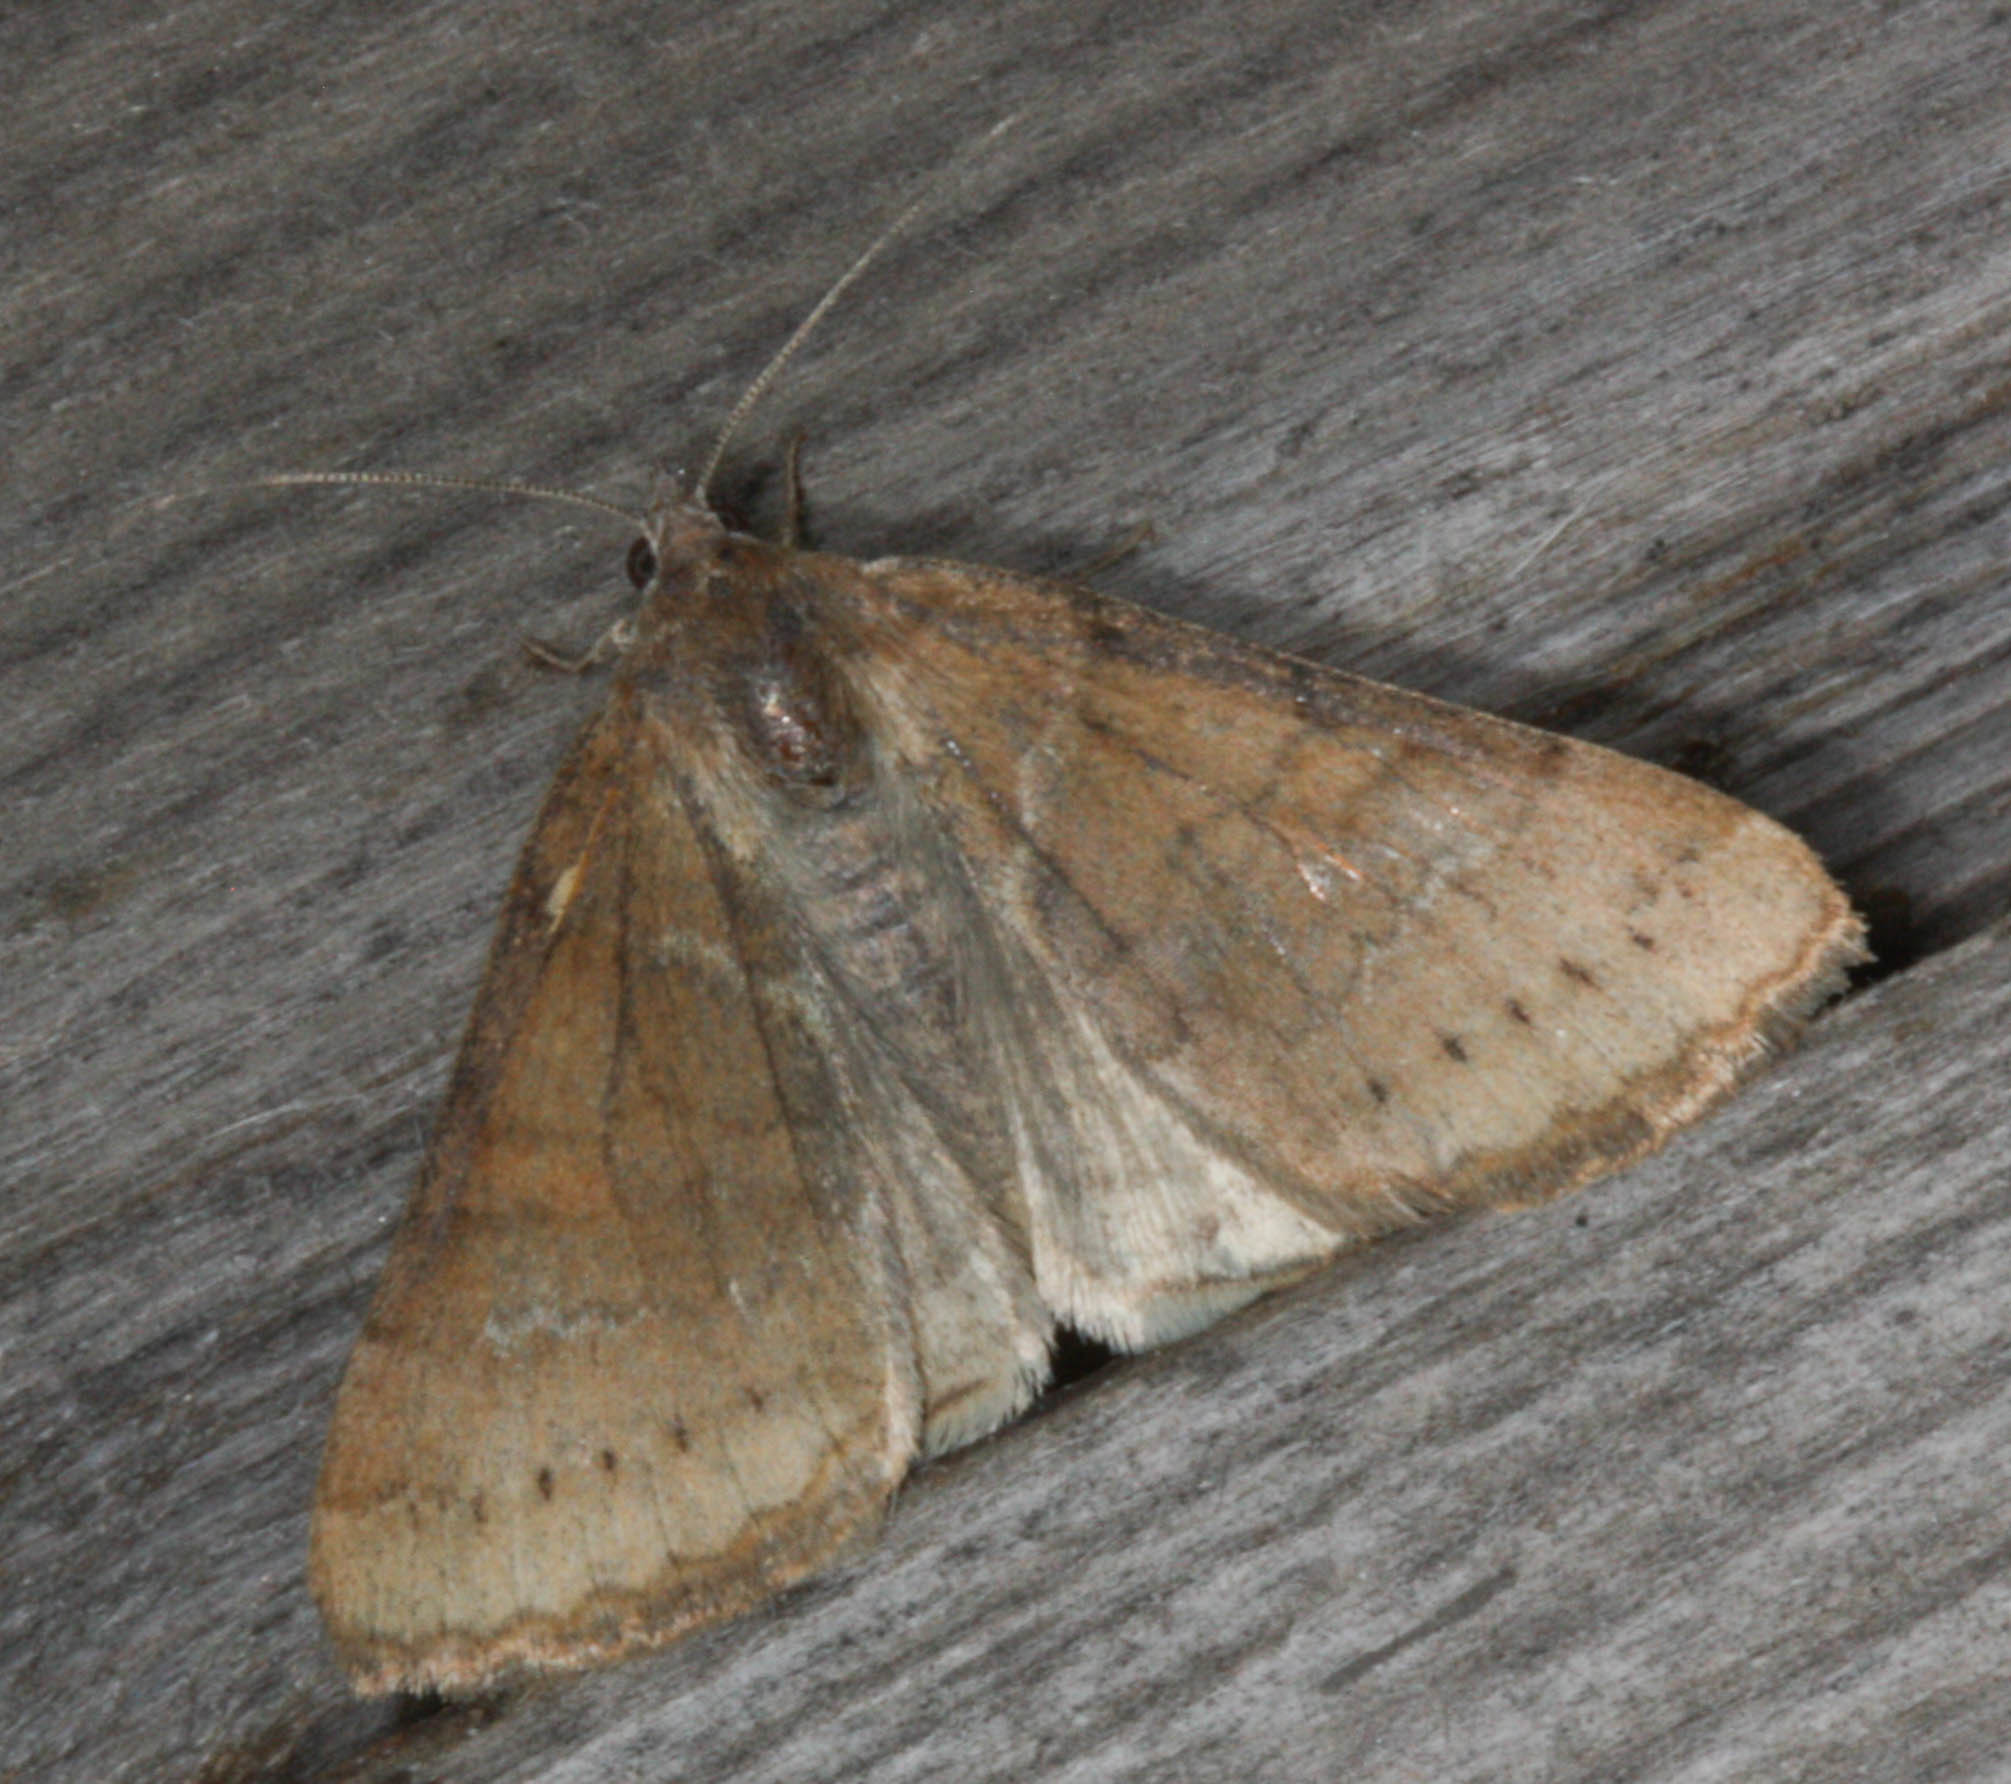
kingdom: Animalia
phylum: Arthropoda
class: Insecta
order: Lepidoptera
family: Erebidae
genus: Caenurgina
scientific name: Caenurgina erechtea
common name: Forage looper moth
